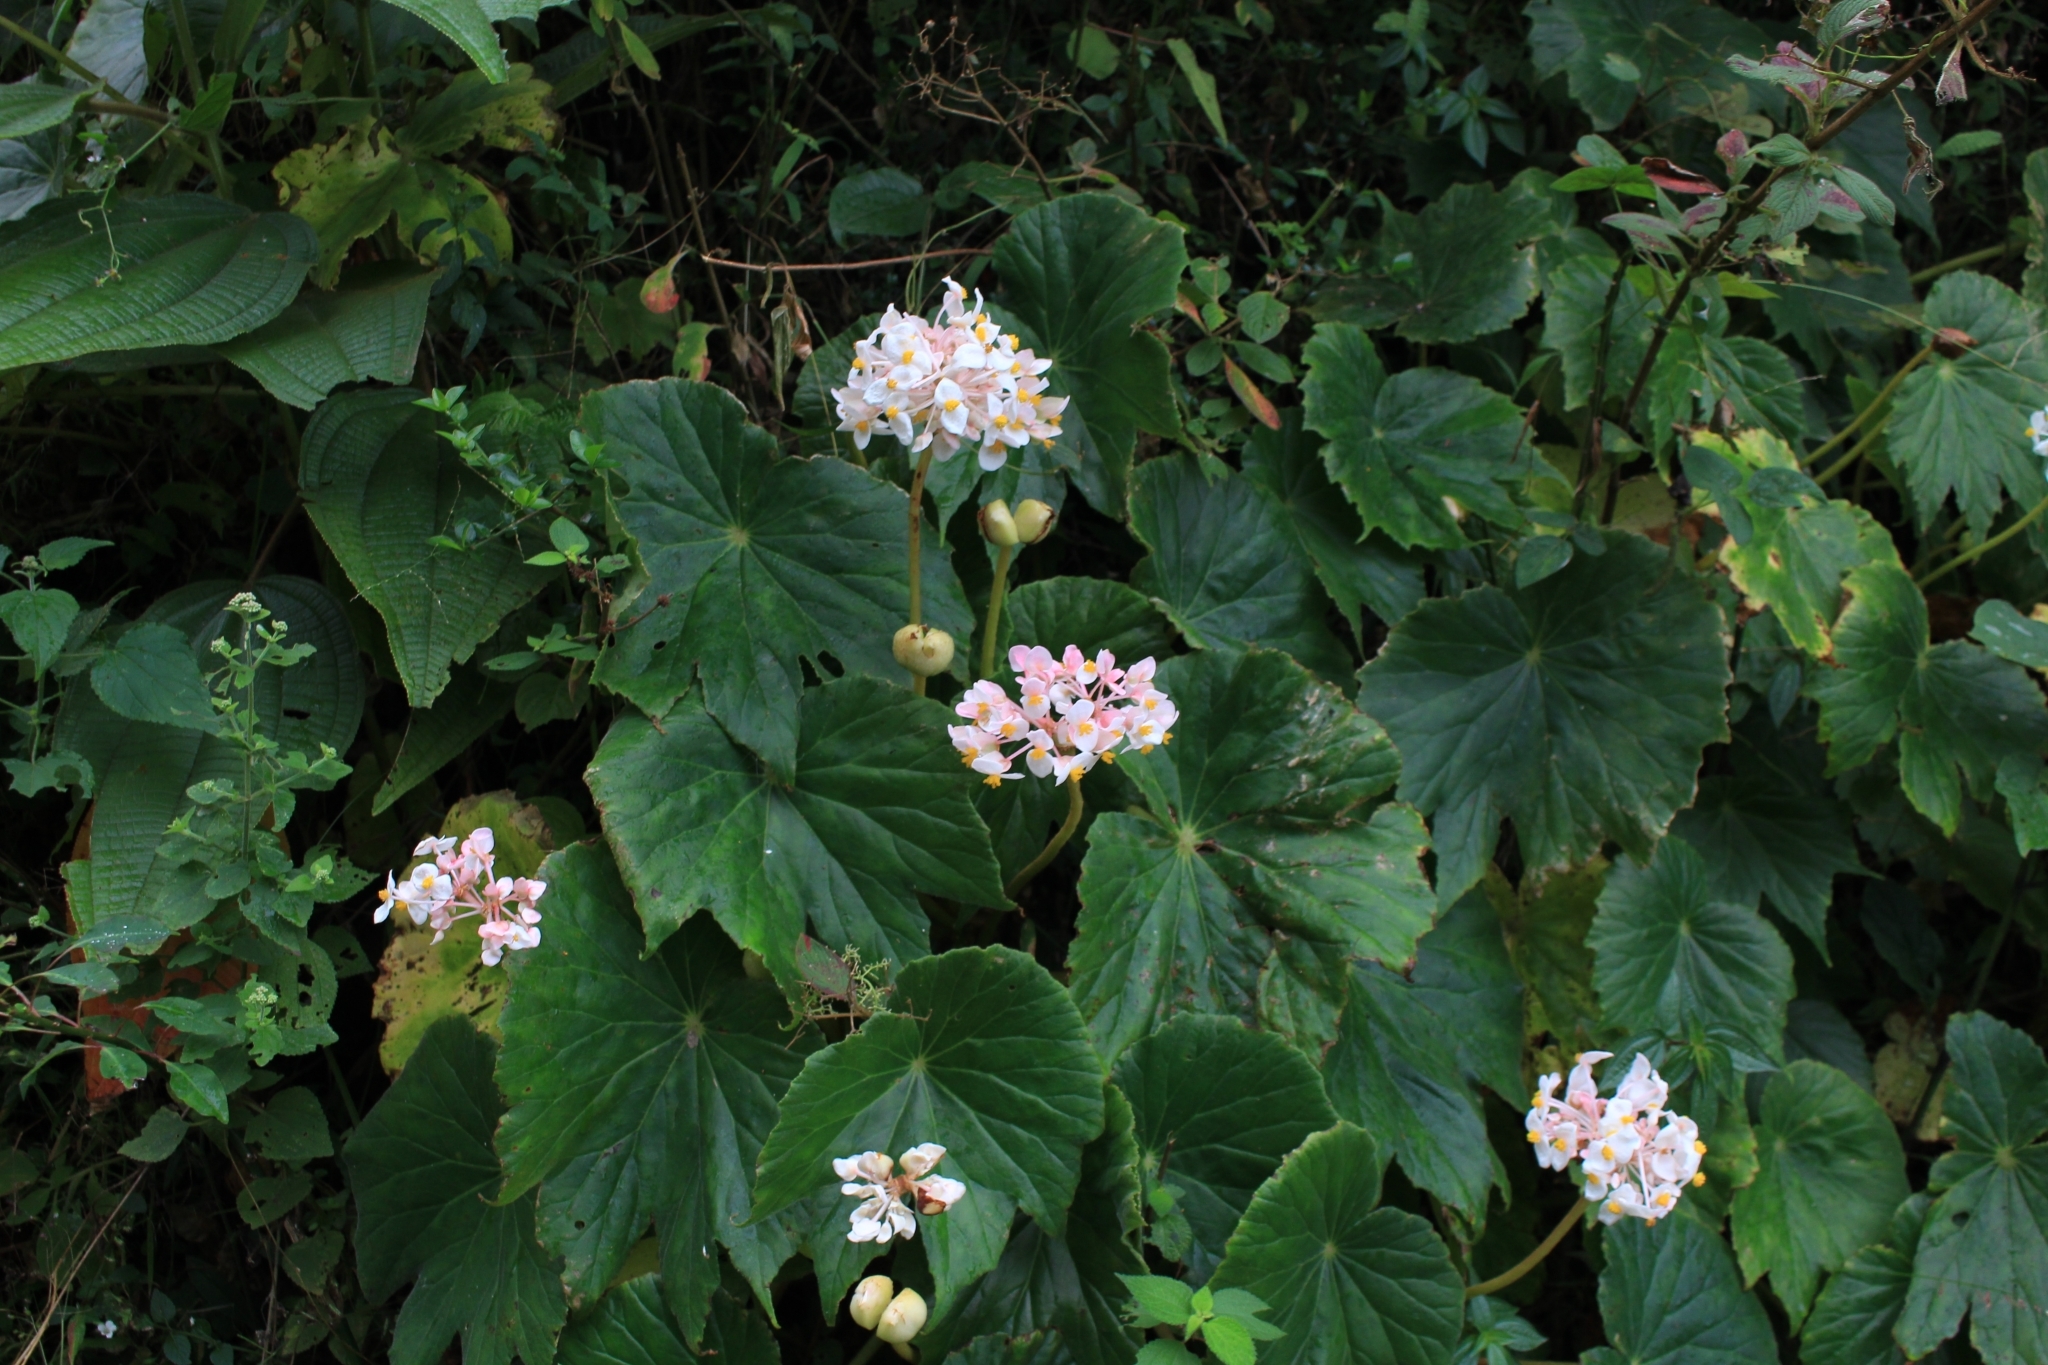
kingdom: Plantae
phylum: Tracheophyta
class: Magnoliopsida
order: Cucurbitales
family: Begoniaceae
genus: Begonia
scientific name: Begonia involucrata
